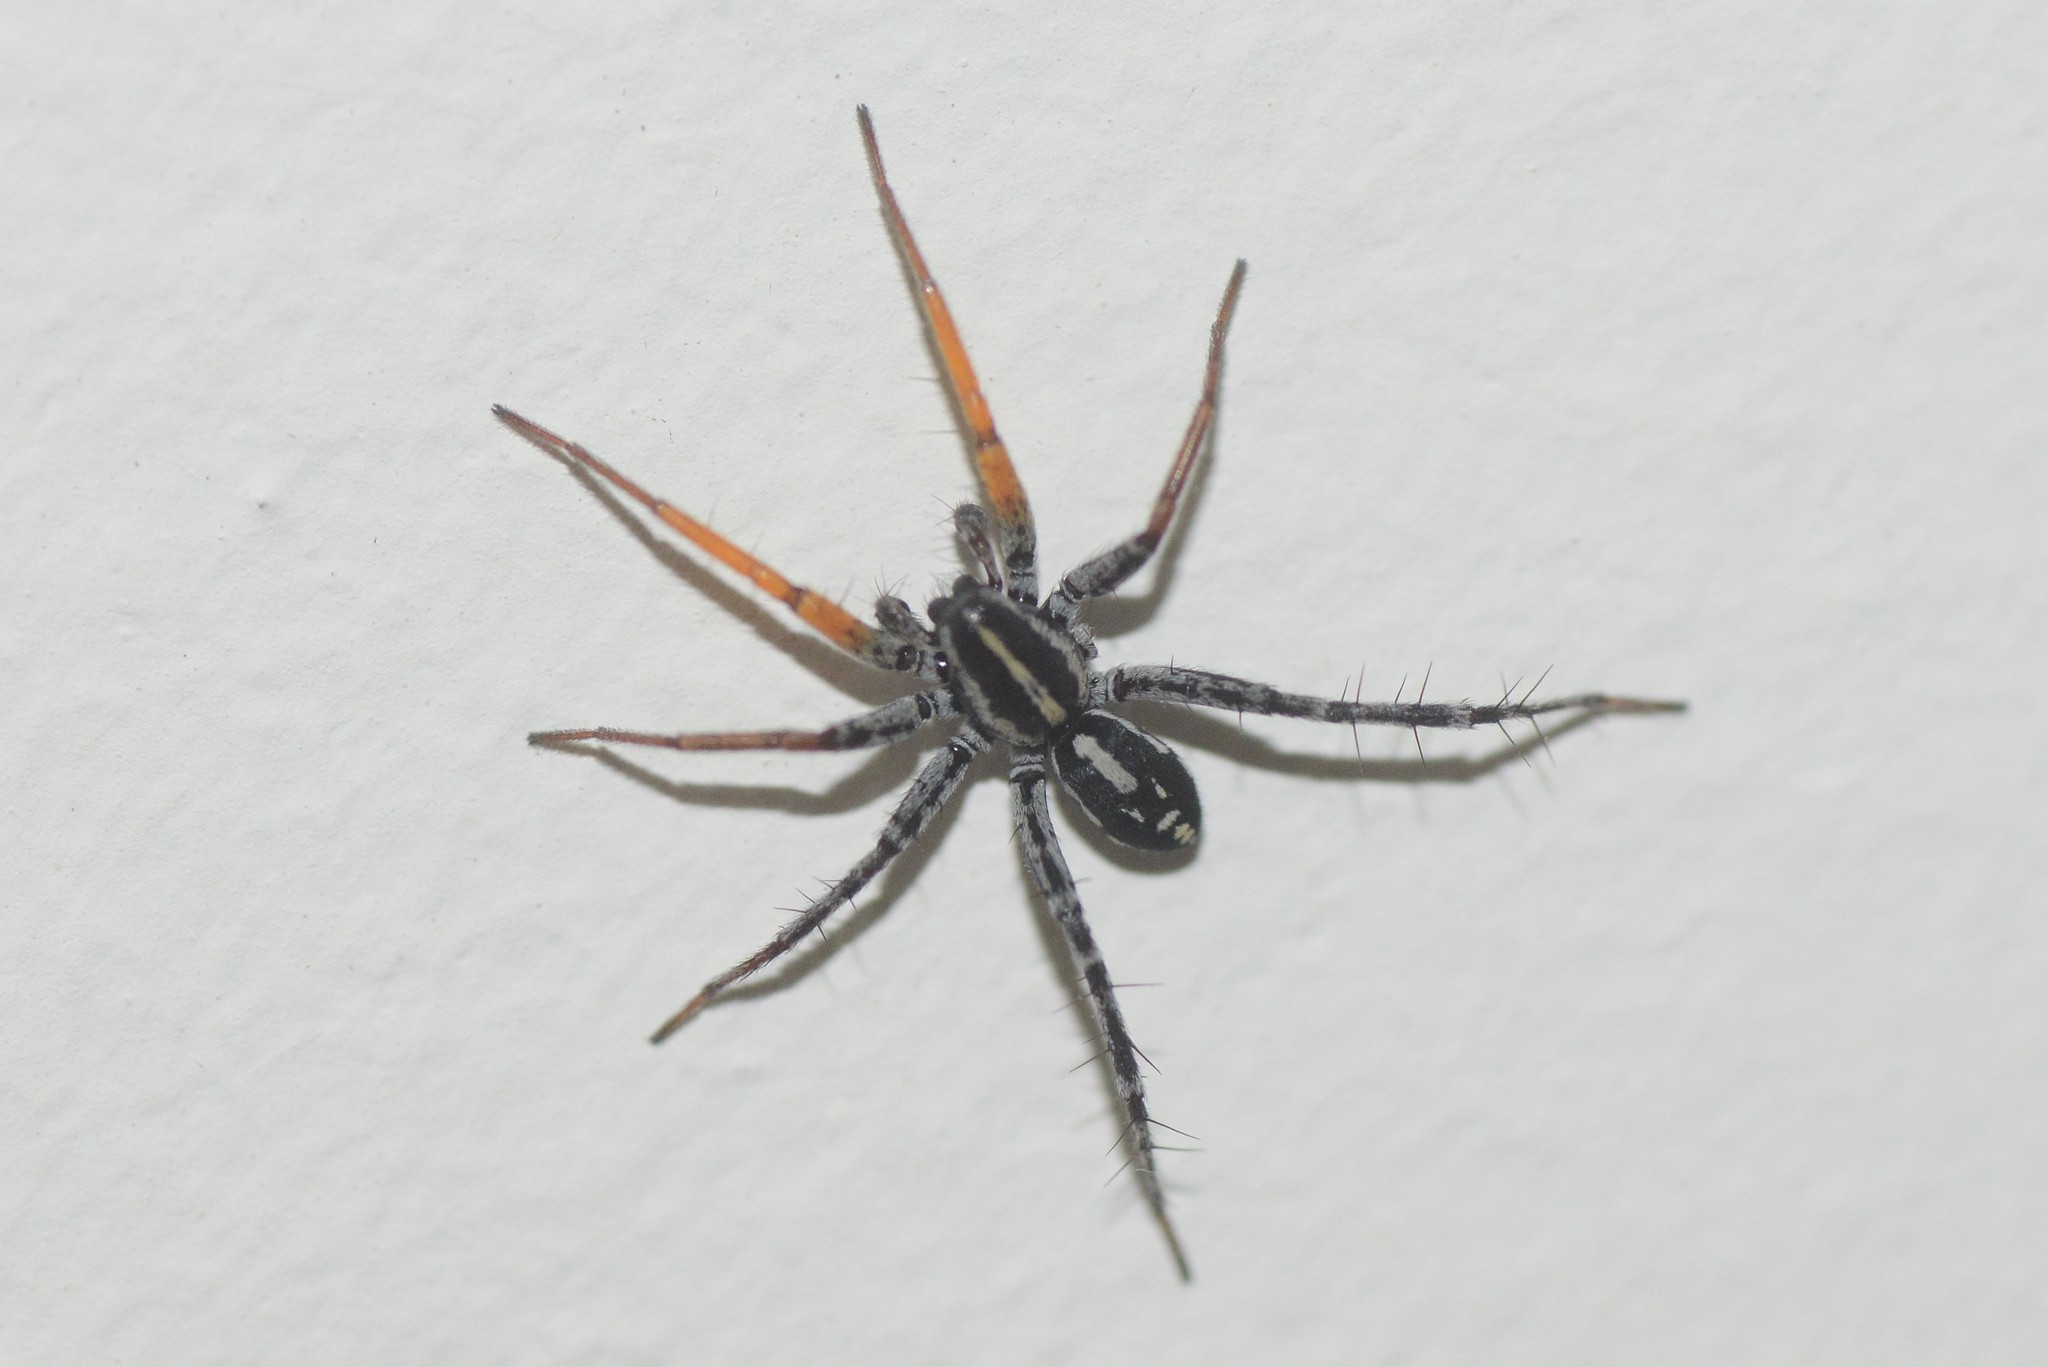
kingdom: Animalia
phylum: Arthropoda
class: Arachnida
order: Araneae
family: Corinnidae
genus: Nyssus
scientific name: Nyssus coloripes
